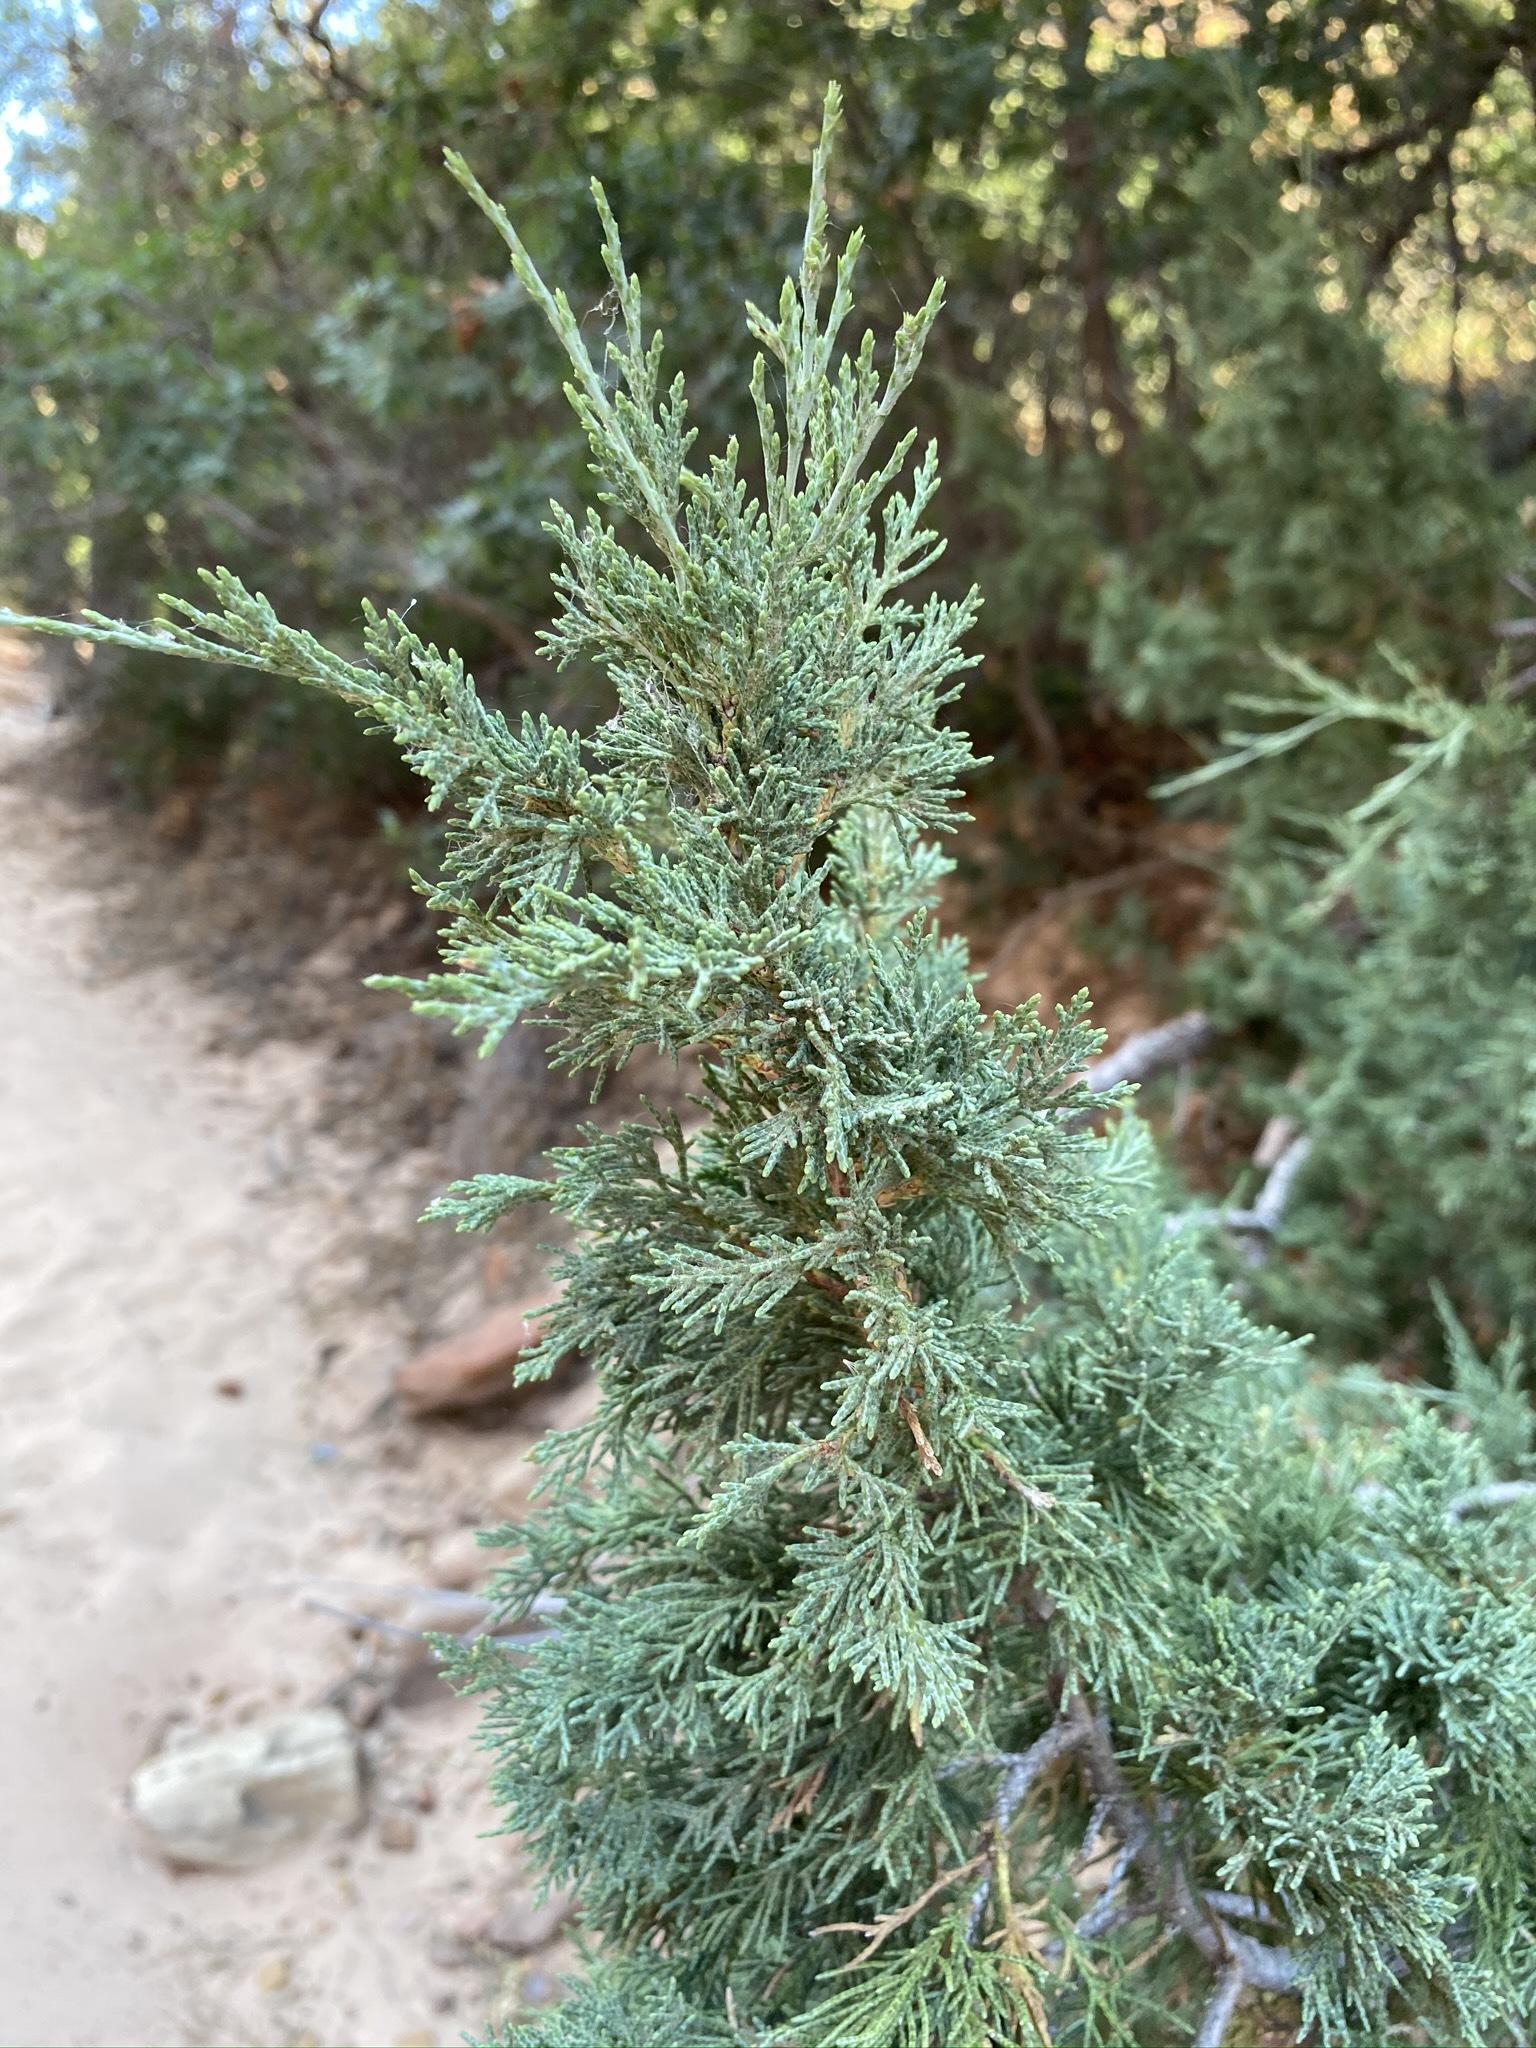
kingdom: Plantae
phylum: Tracheophyta
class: Pinopsida
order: Pinales
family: Cupressaceae
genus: Juniperus
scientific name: Juniperus scopulorum
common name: Rocky mountain juniper
